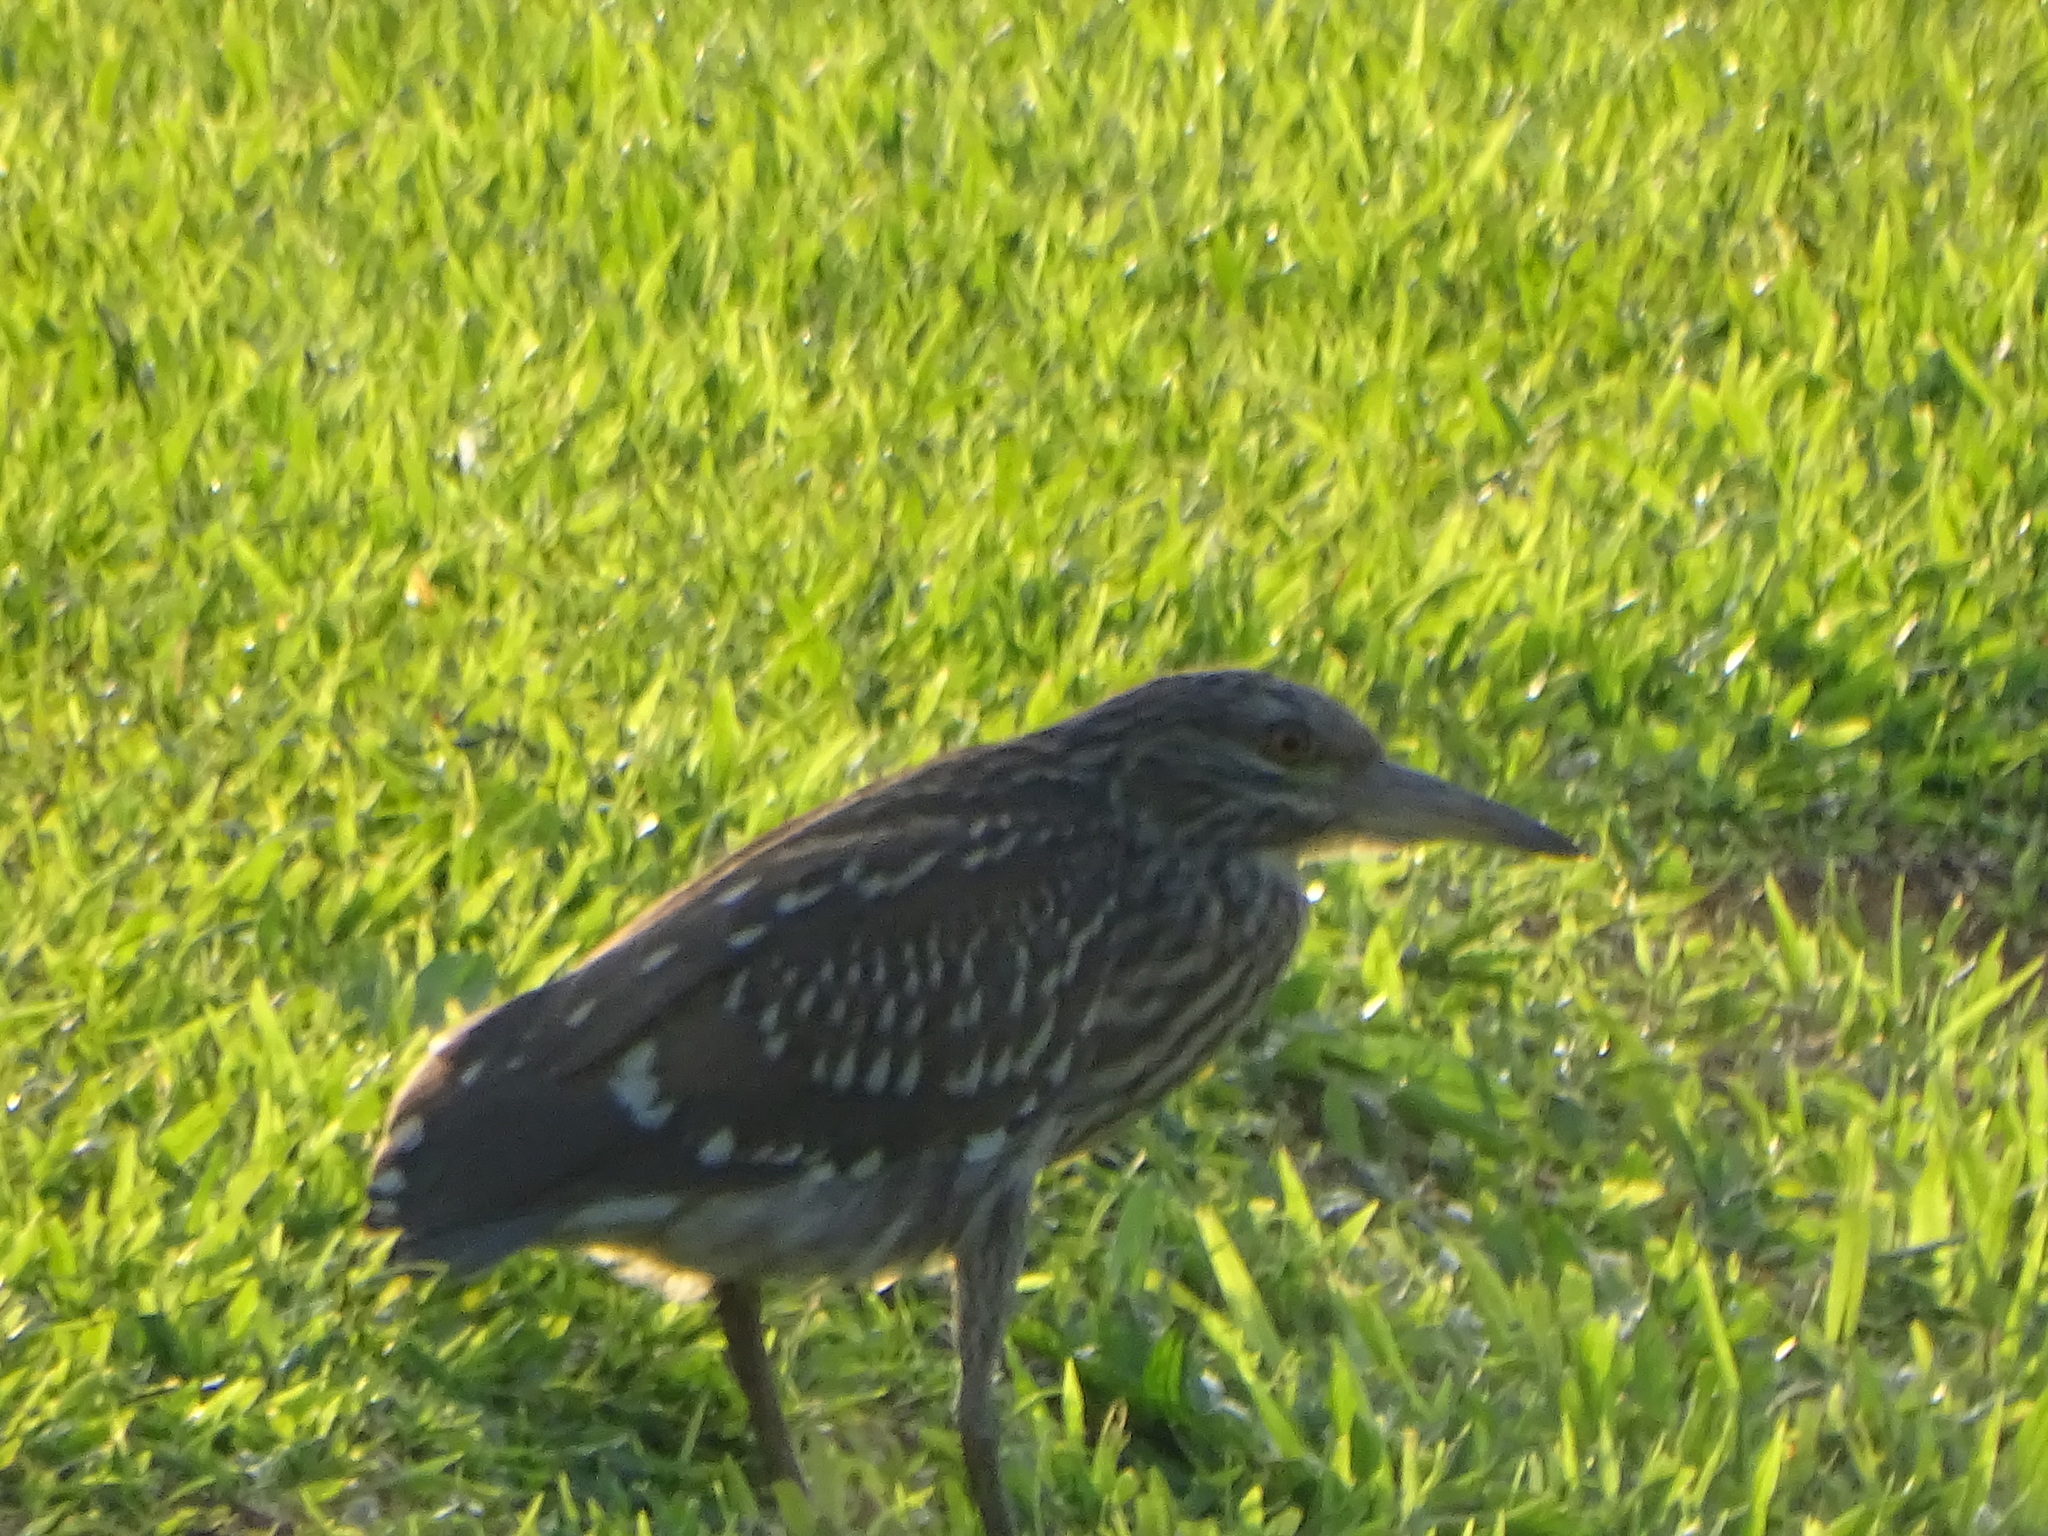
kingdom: Animalia
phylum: Chordata
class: Aves
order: Pelecaniformes
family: Ardeidae
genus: Nycticorax
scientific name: Nycticorax nycticorax
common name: Black-crowned night heron
